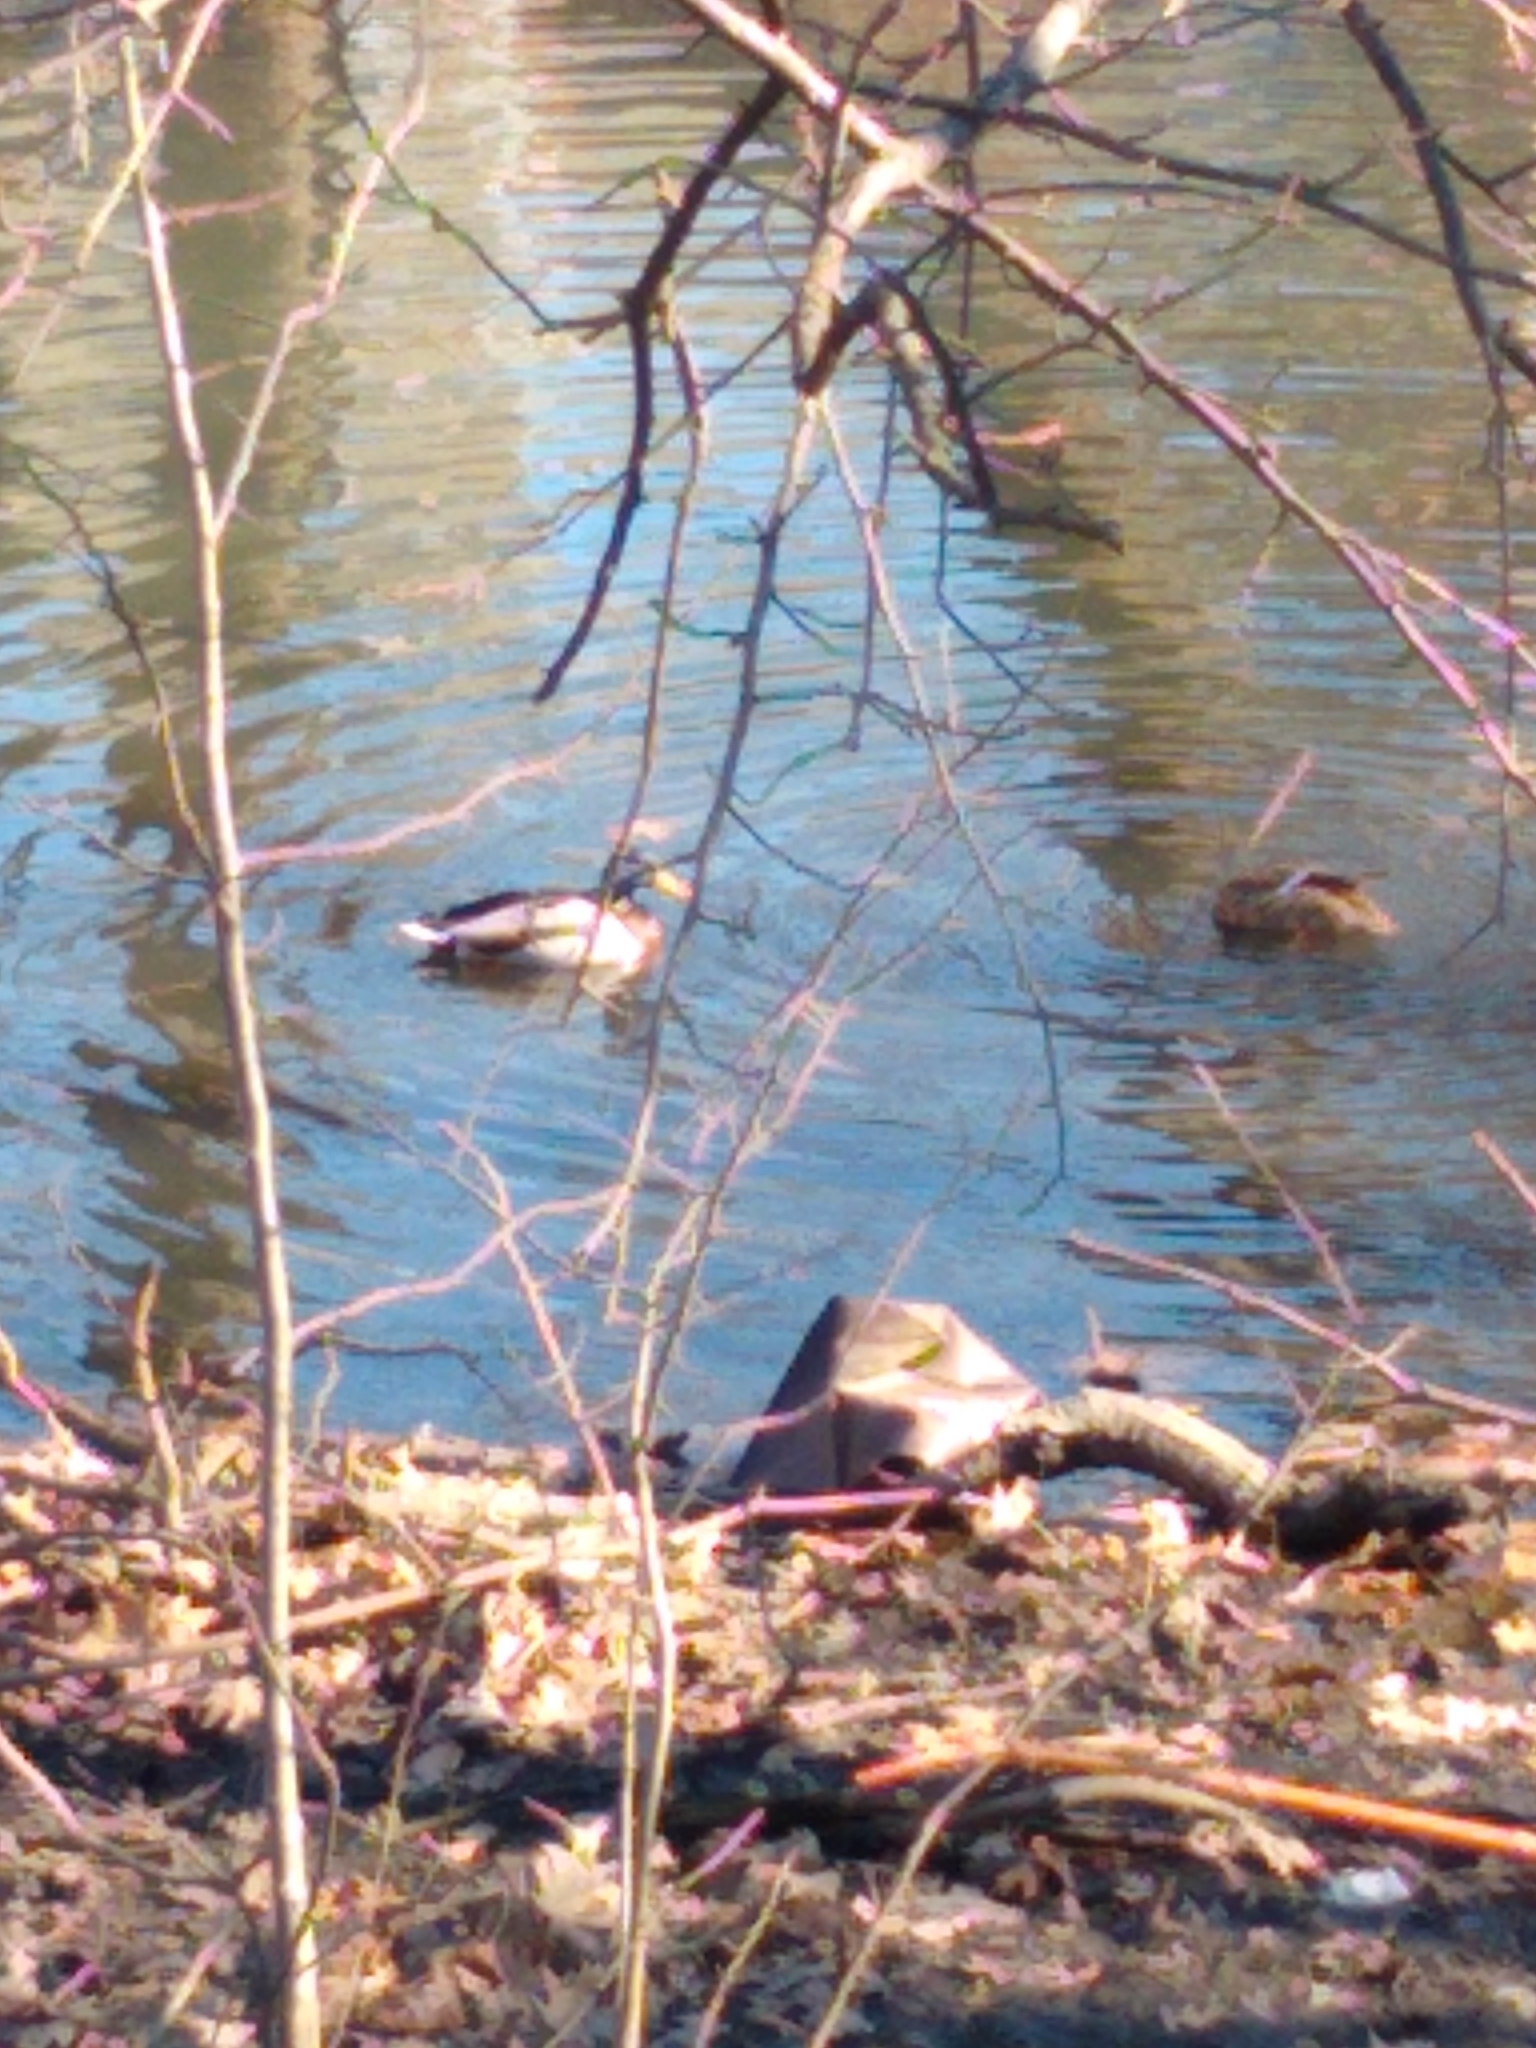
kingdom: Animalia
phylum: Chordata
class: Aves
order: Anseriformes
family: Anatidae
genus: Anas
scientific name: Anas platyrhynchos
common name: Mallard
